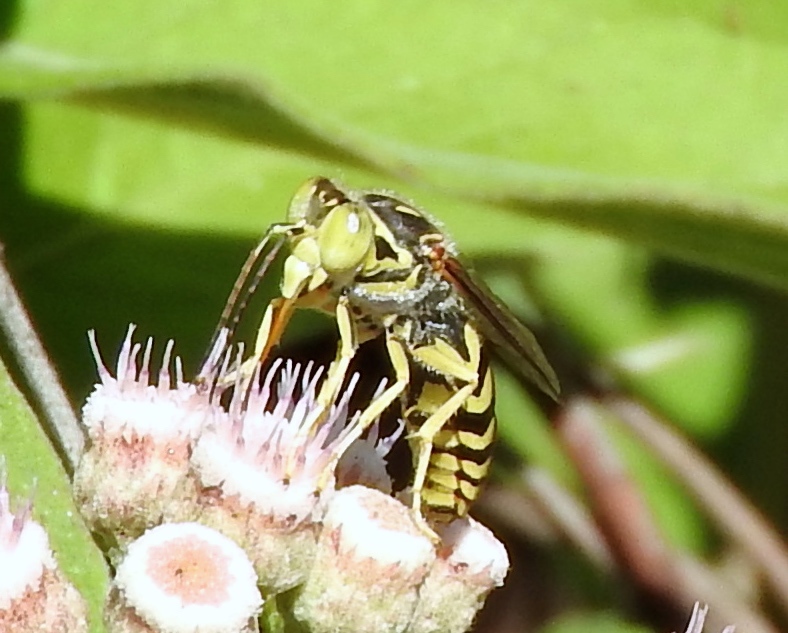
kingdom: Animalia
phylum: Arthropoda
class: Insecta
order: Hymenoptera
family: Crabronidae
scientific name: Crabronidae
